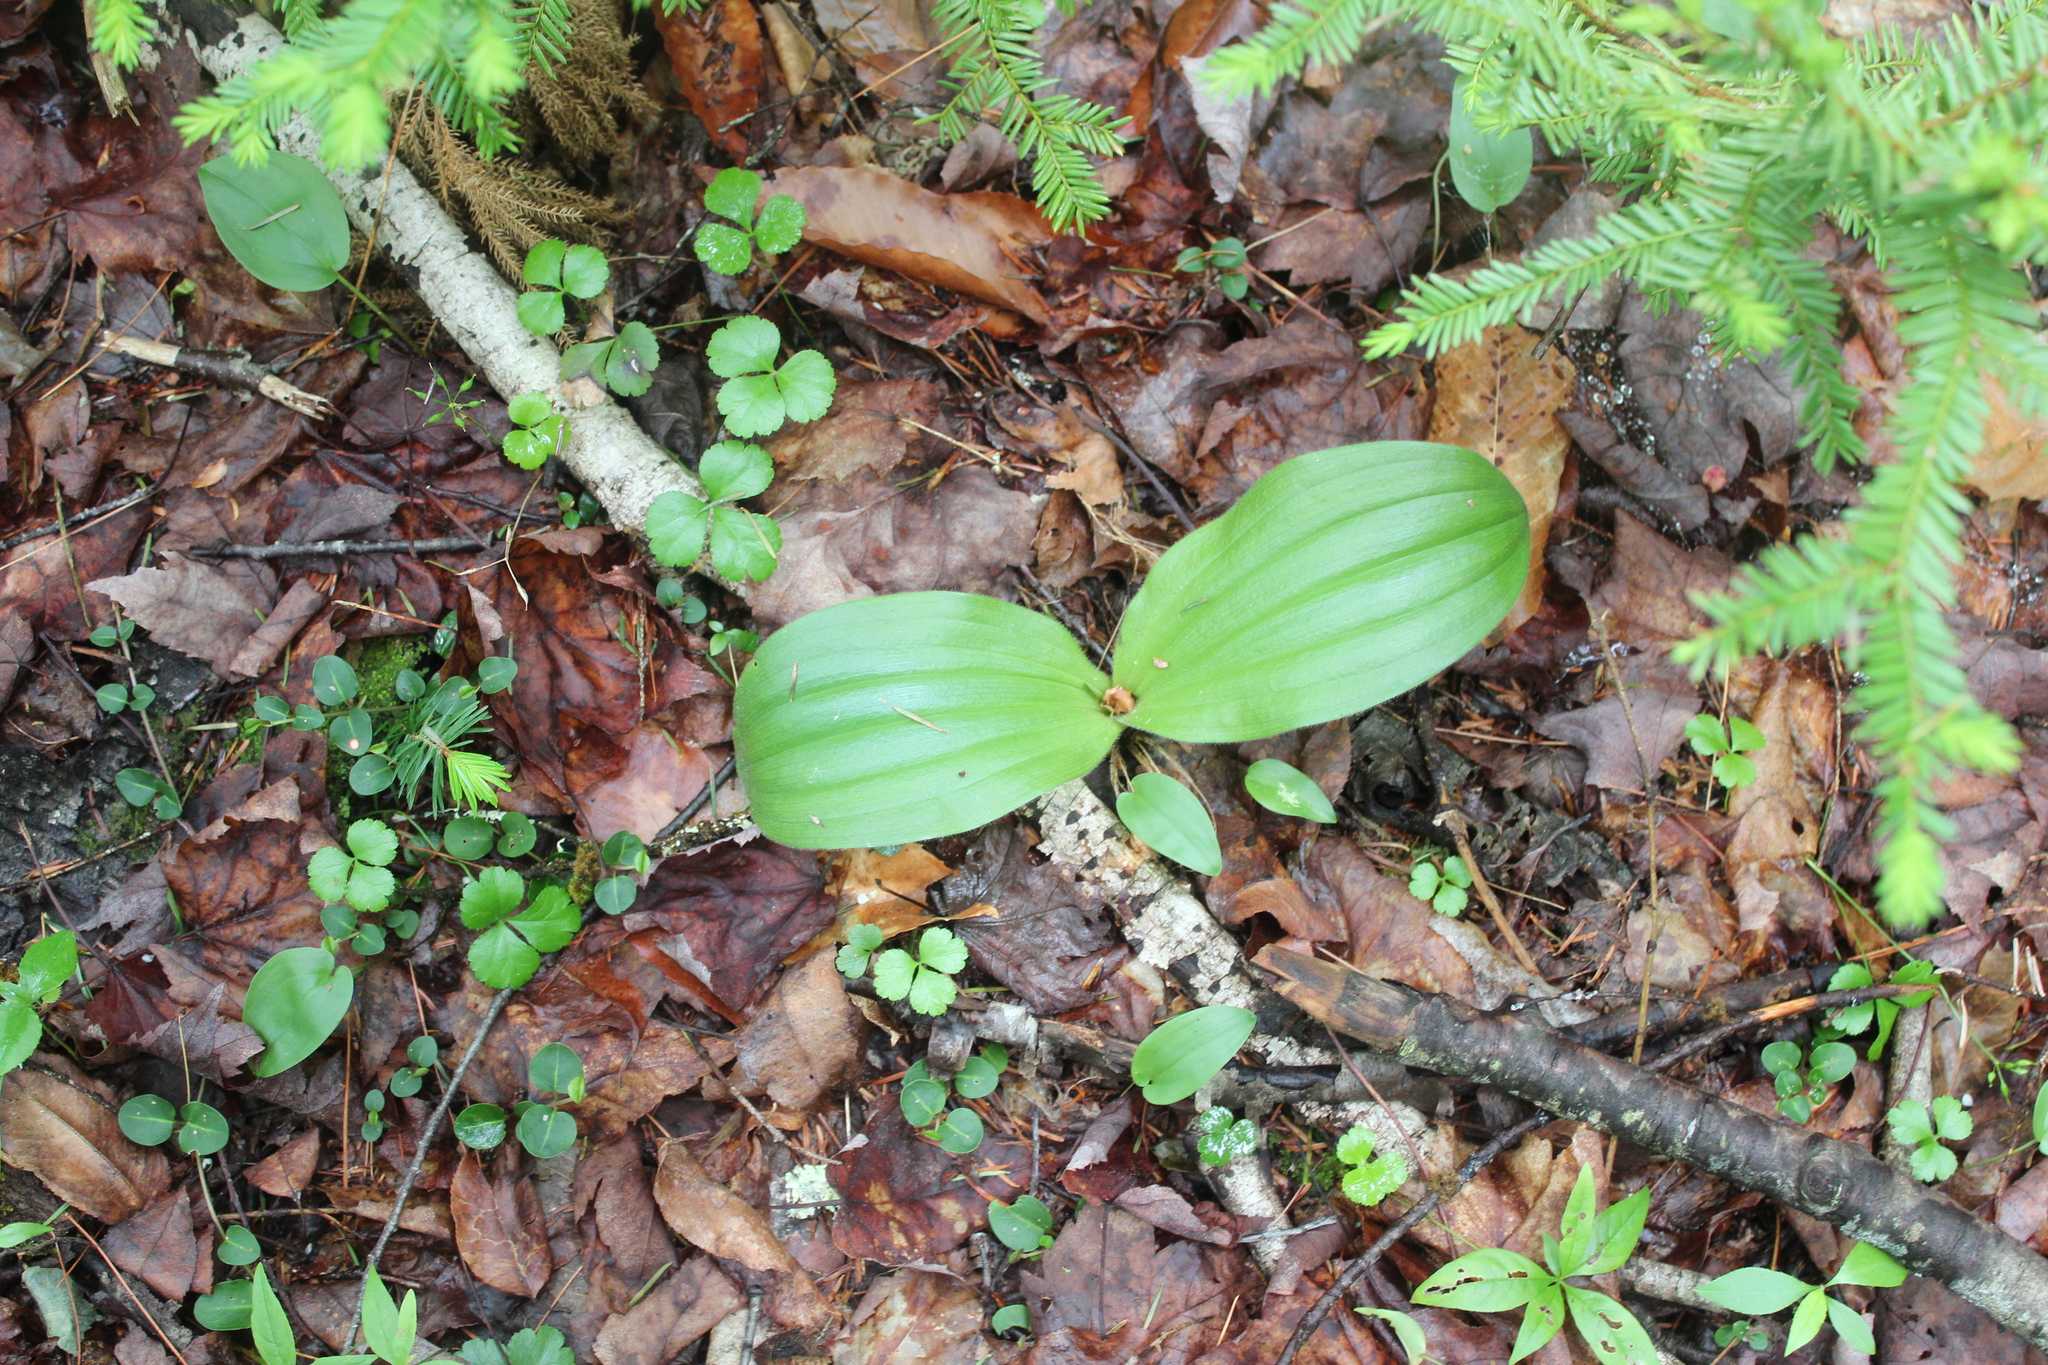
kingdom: Plantae
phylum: Tracheophyta
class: Liliopsida
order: Asparagales
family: Orchidaceae
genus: Cypripedium
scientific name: Cypripedium acaule
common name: Pink lady's-slipper
